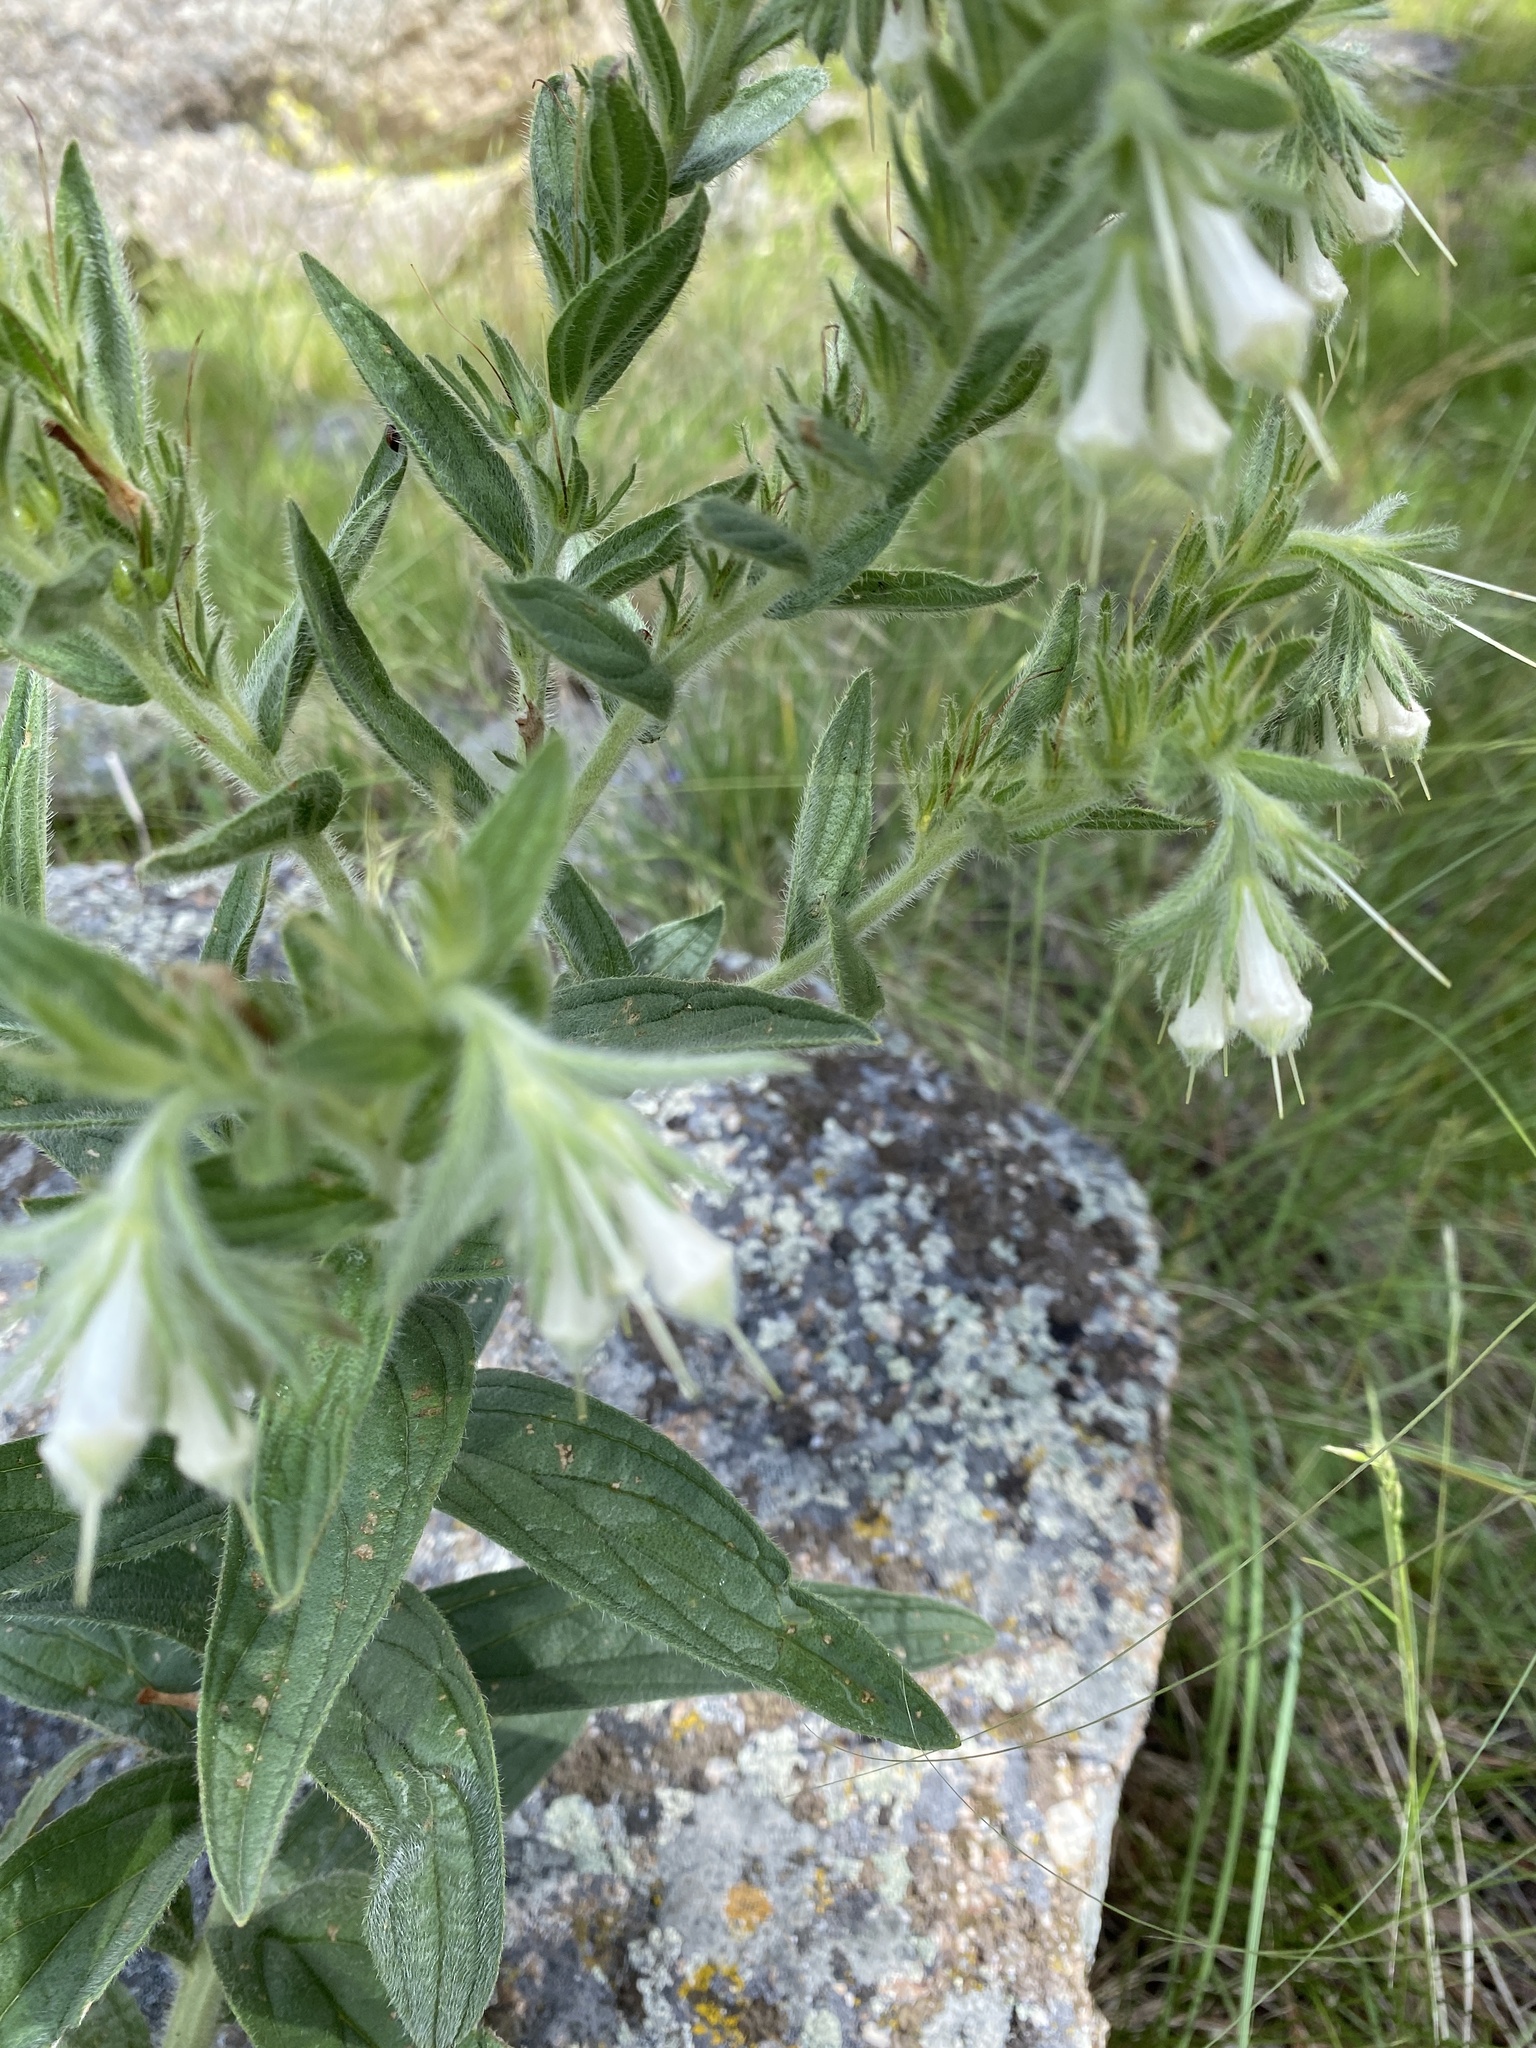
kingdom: Plantae
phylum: Tracheophyta
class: Magnoliopsida
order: Boraginales
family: Boraginaceae
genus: Lithospermum
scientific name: Lithospermum occidentale
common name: Western false gromwell
